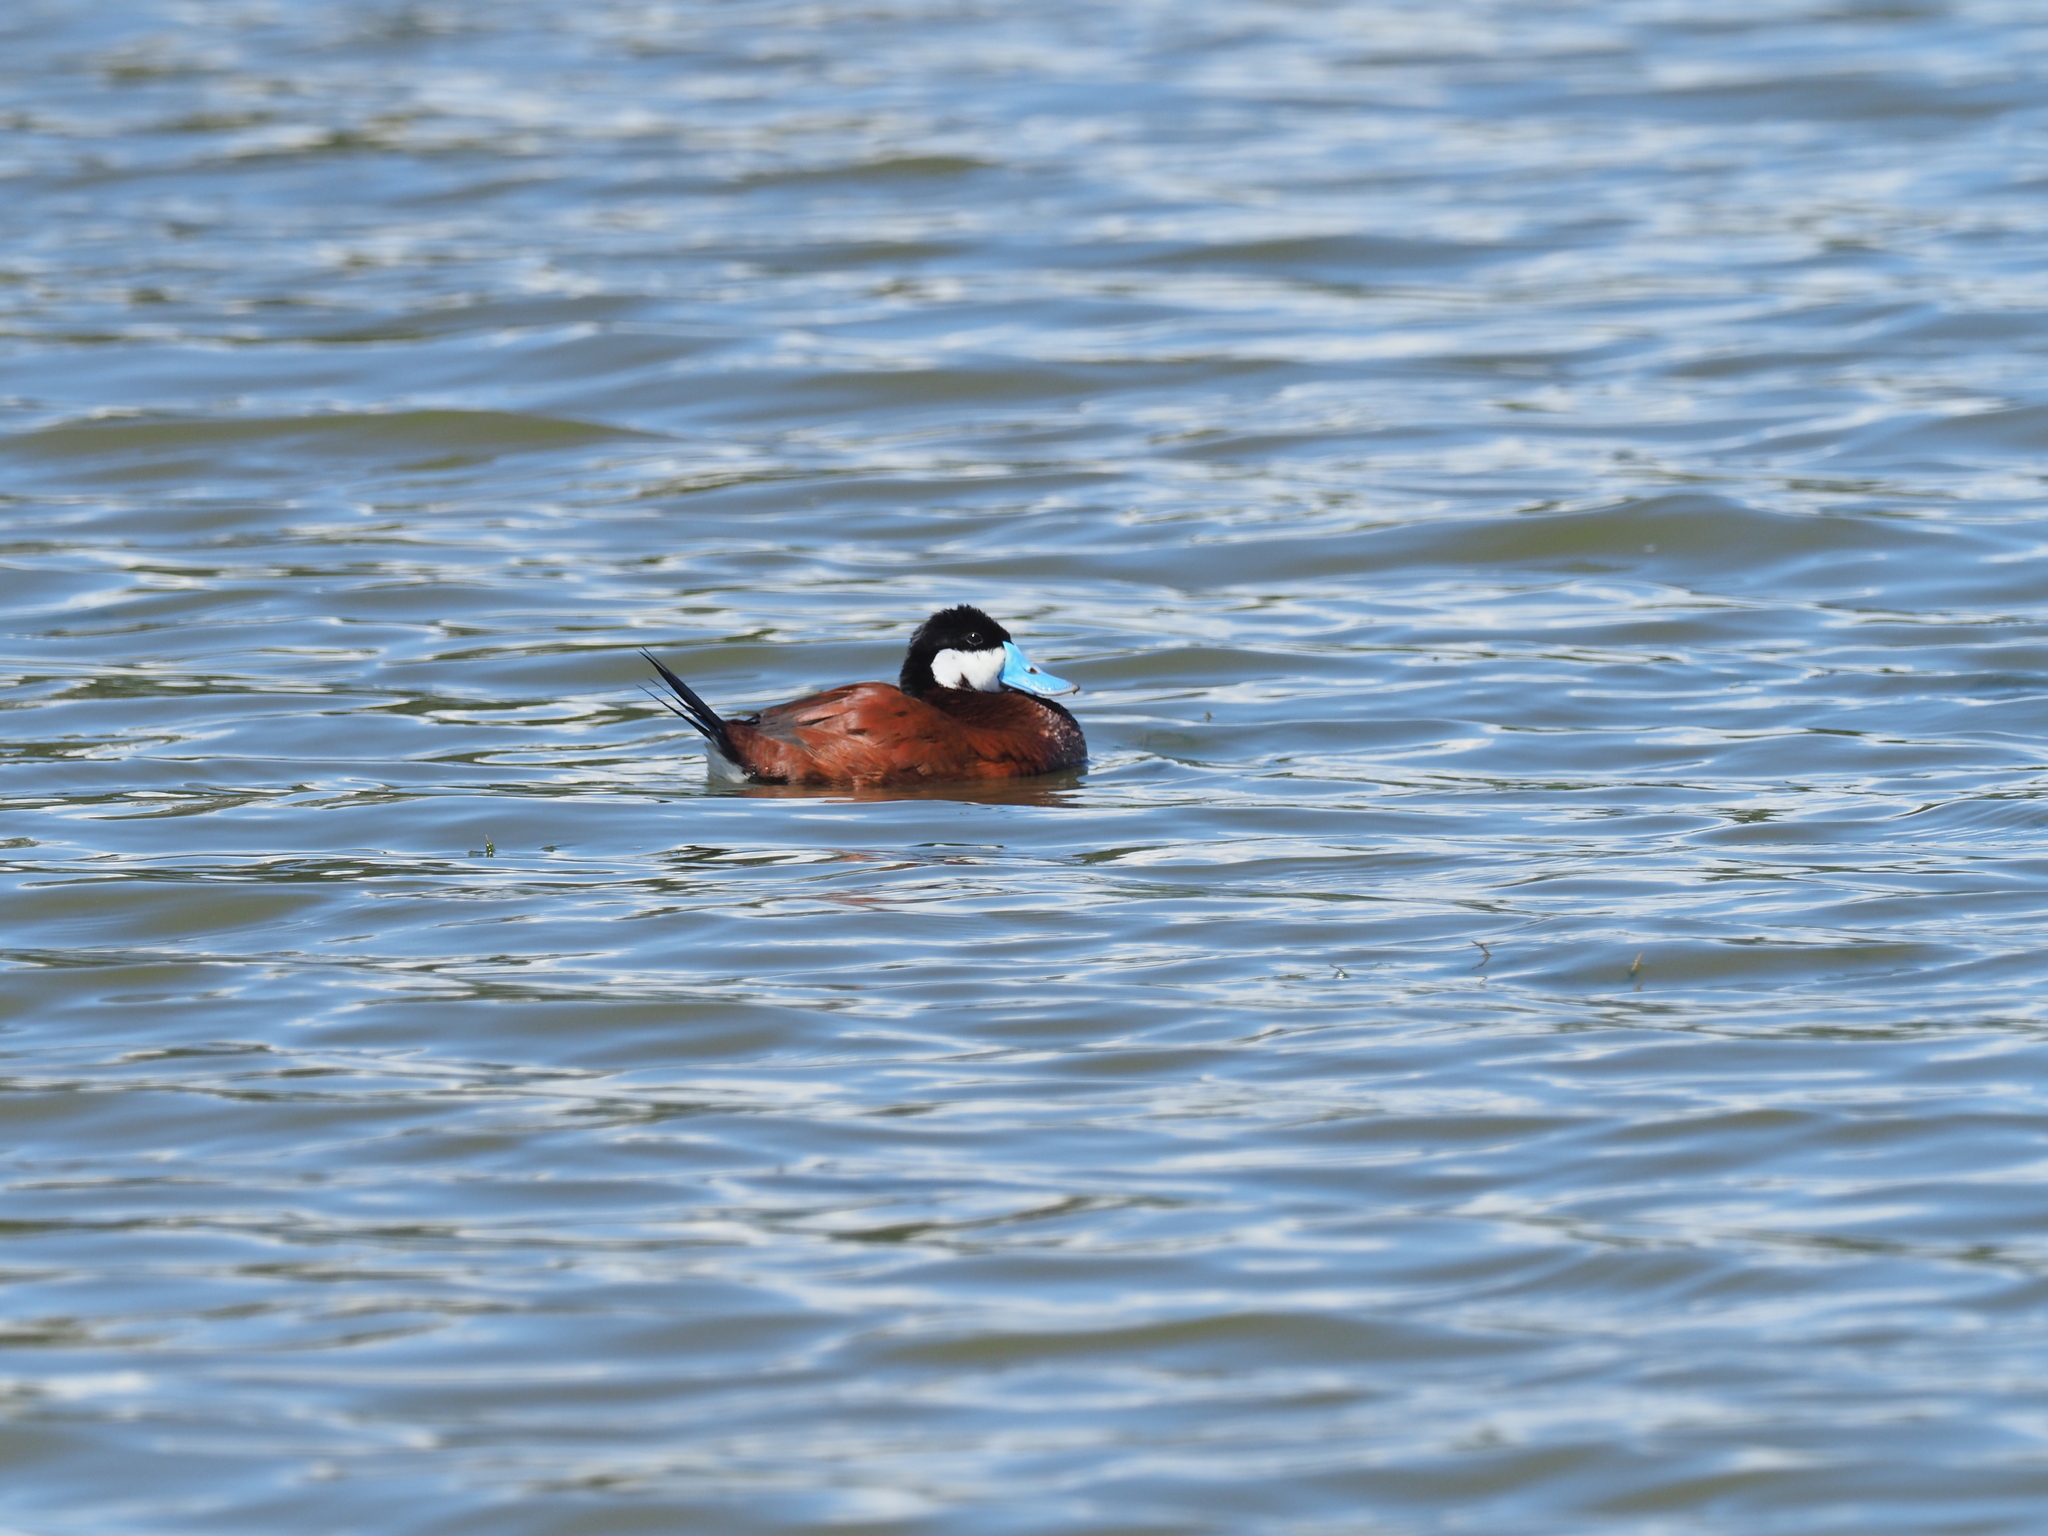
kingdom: Animalia
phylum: Chordata
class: Aves
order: Anseriformes
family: Anatidae
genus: Oxyura
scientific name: Oxyura jamaicensis
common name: Ruddy duck
